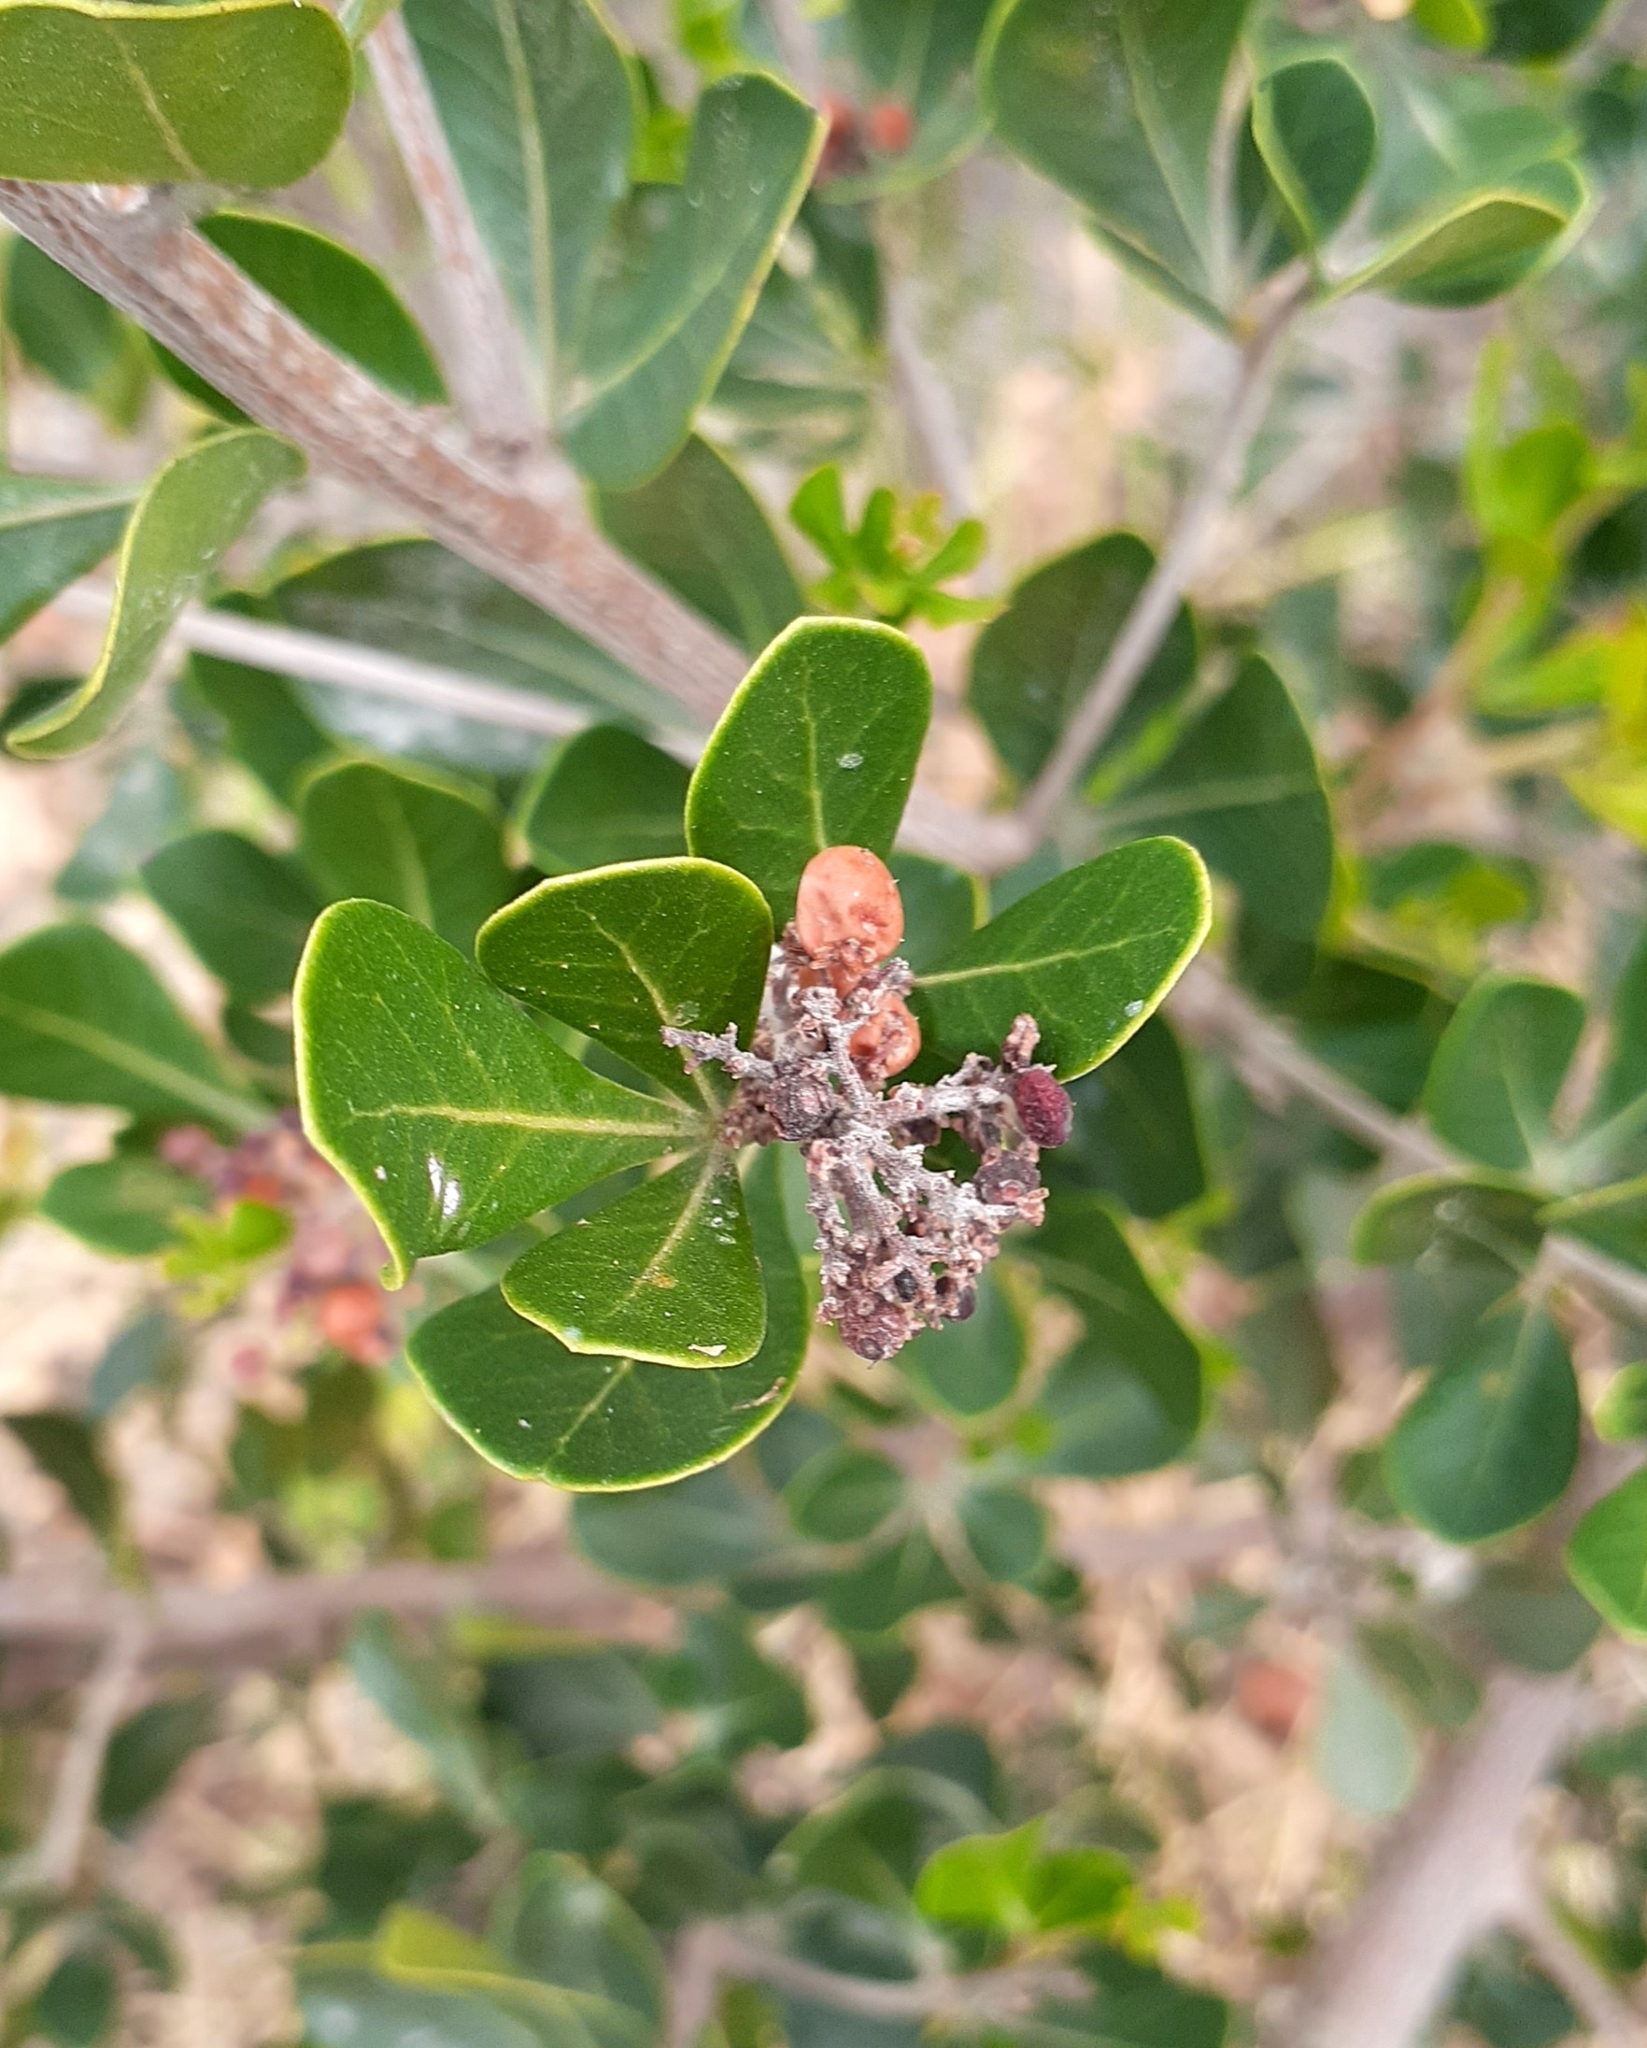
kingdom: Plantae
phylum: Tracheophyta
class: Magnoliopsida
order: Sapindales
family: Anacardiaceae
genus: Searsia
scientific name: Searsia lucida
